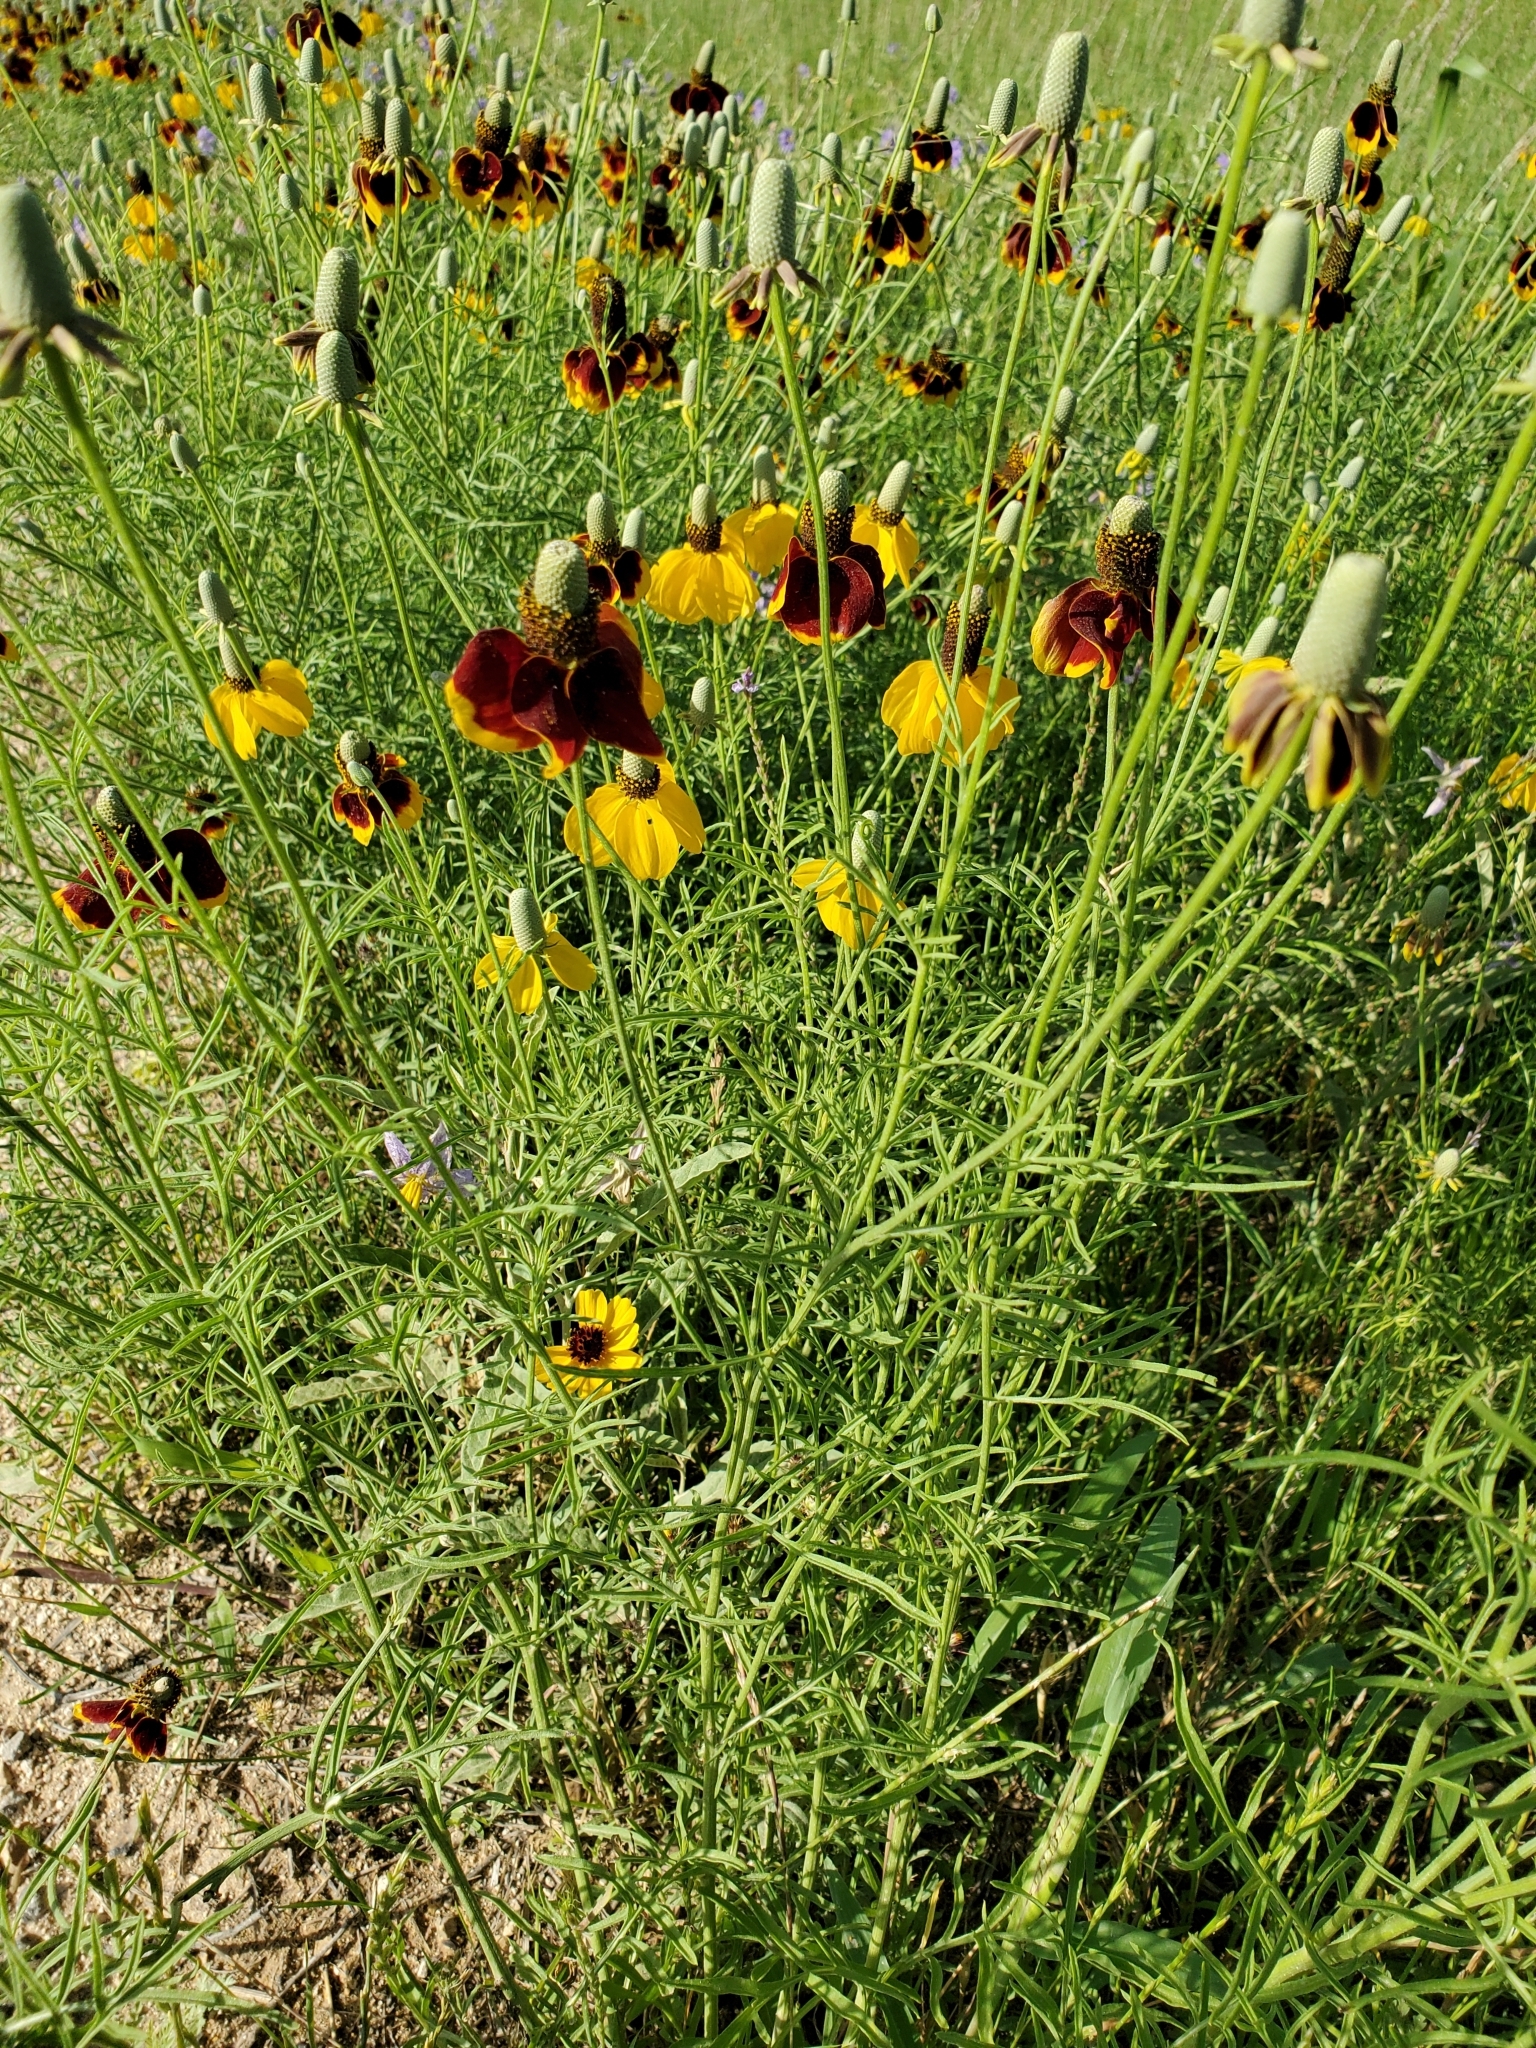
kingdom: Plantae
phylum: Tracheophyta
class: Magnoliopsida
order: Asterales
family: Asteraceae
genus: Ratibida
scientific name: Ratibida columnifera
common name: Prairie coneflower
